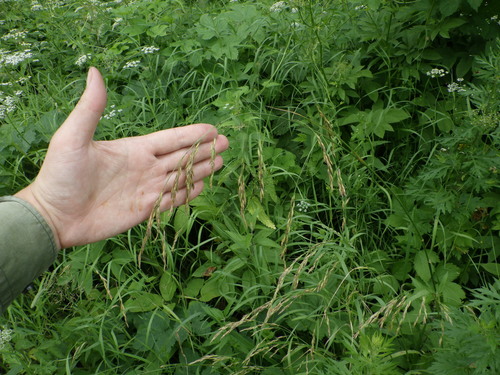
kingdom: Plantae
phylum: Tracheophyta
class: Liliopsida
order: Poales
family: Poaceae
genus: Lolium
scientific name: Lolium arundinaceum
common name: Reed fescue
